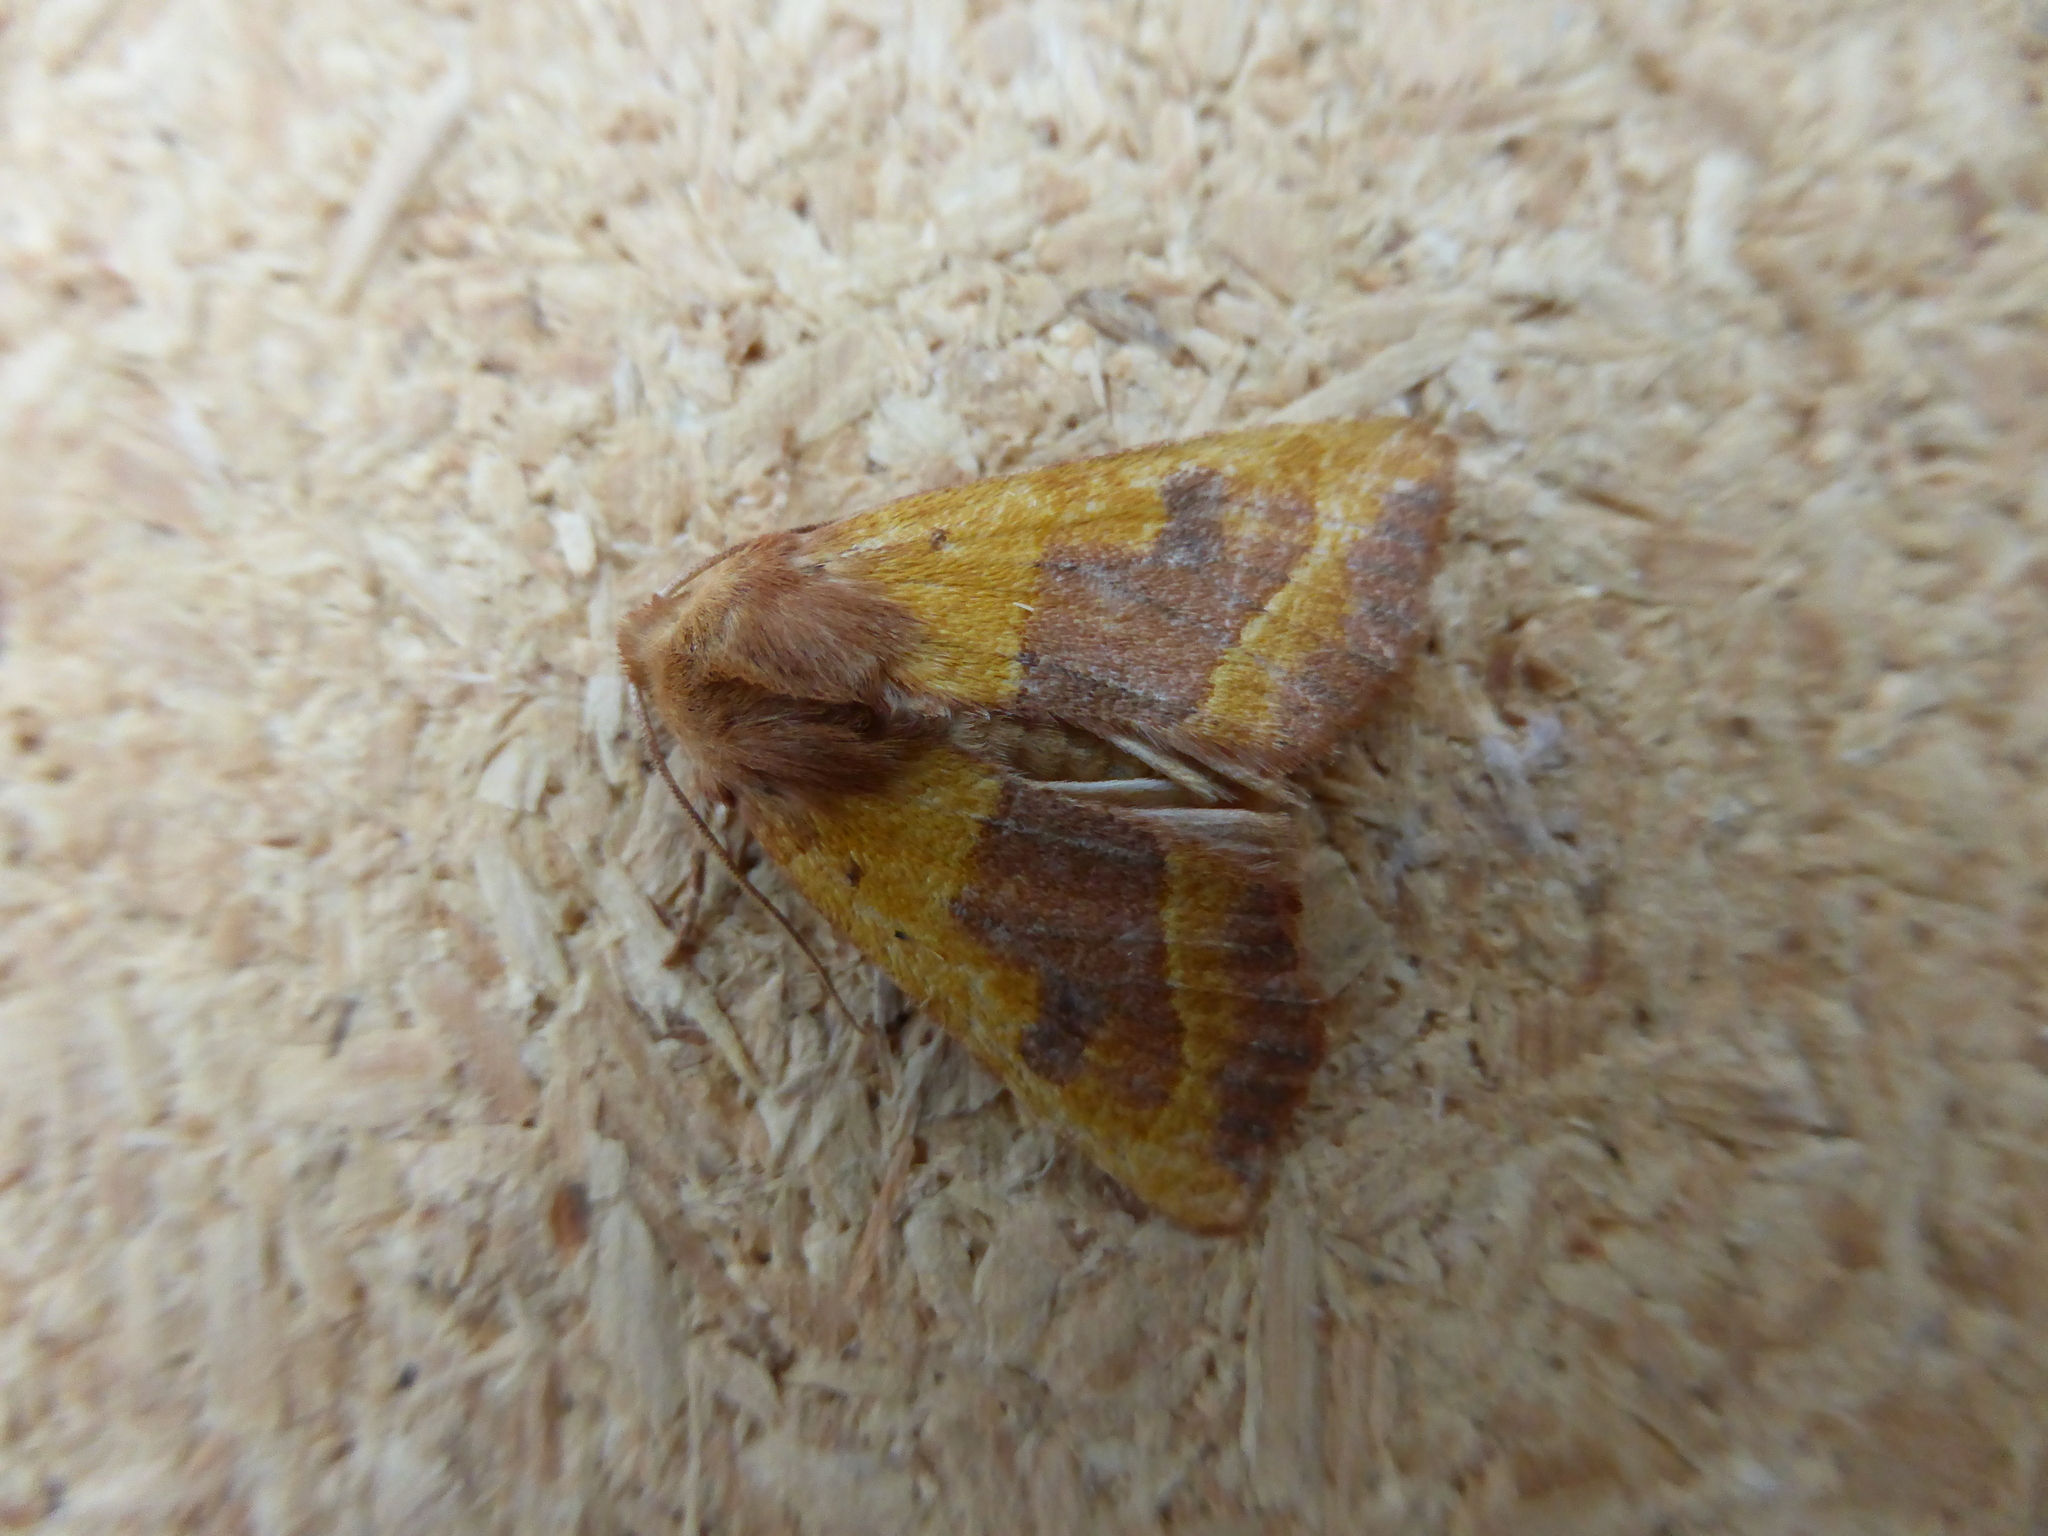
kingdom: Animalia
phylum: Arthropoda
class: Insecta
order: Lepidoptera
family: Noctuidae
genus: Atethmia
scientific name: Atethmia centrago
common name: Centre-barred sallow
